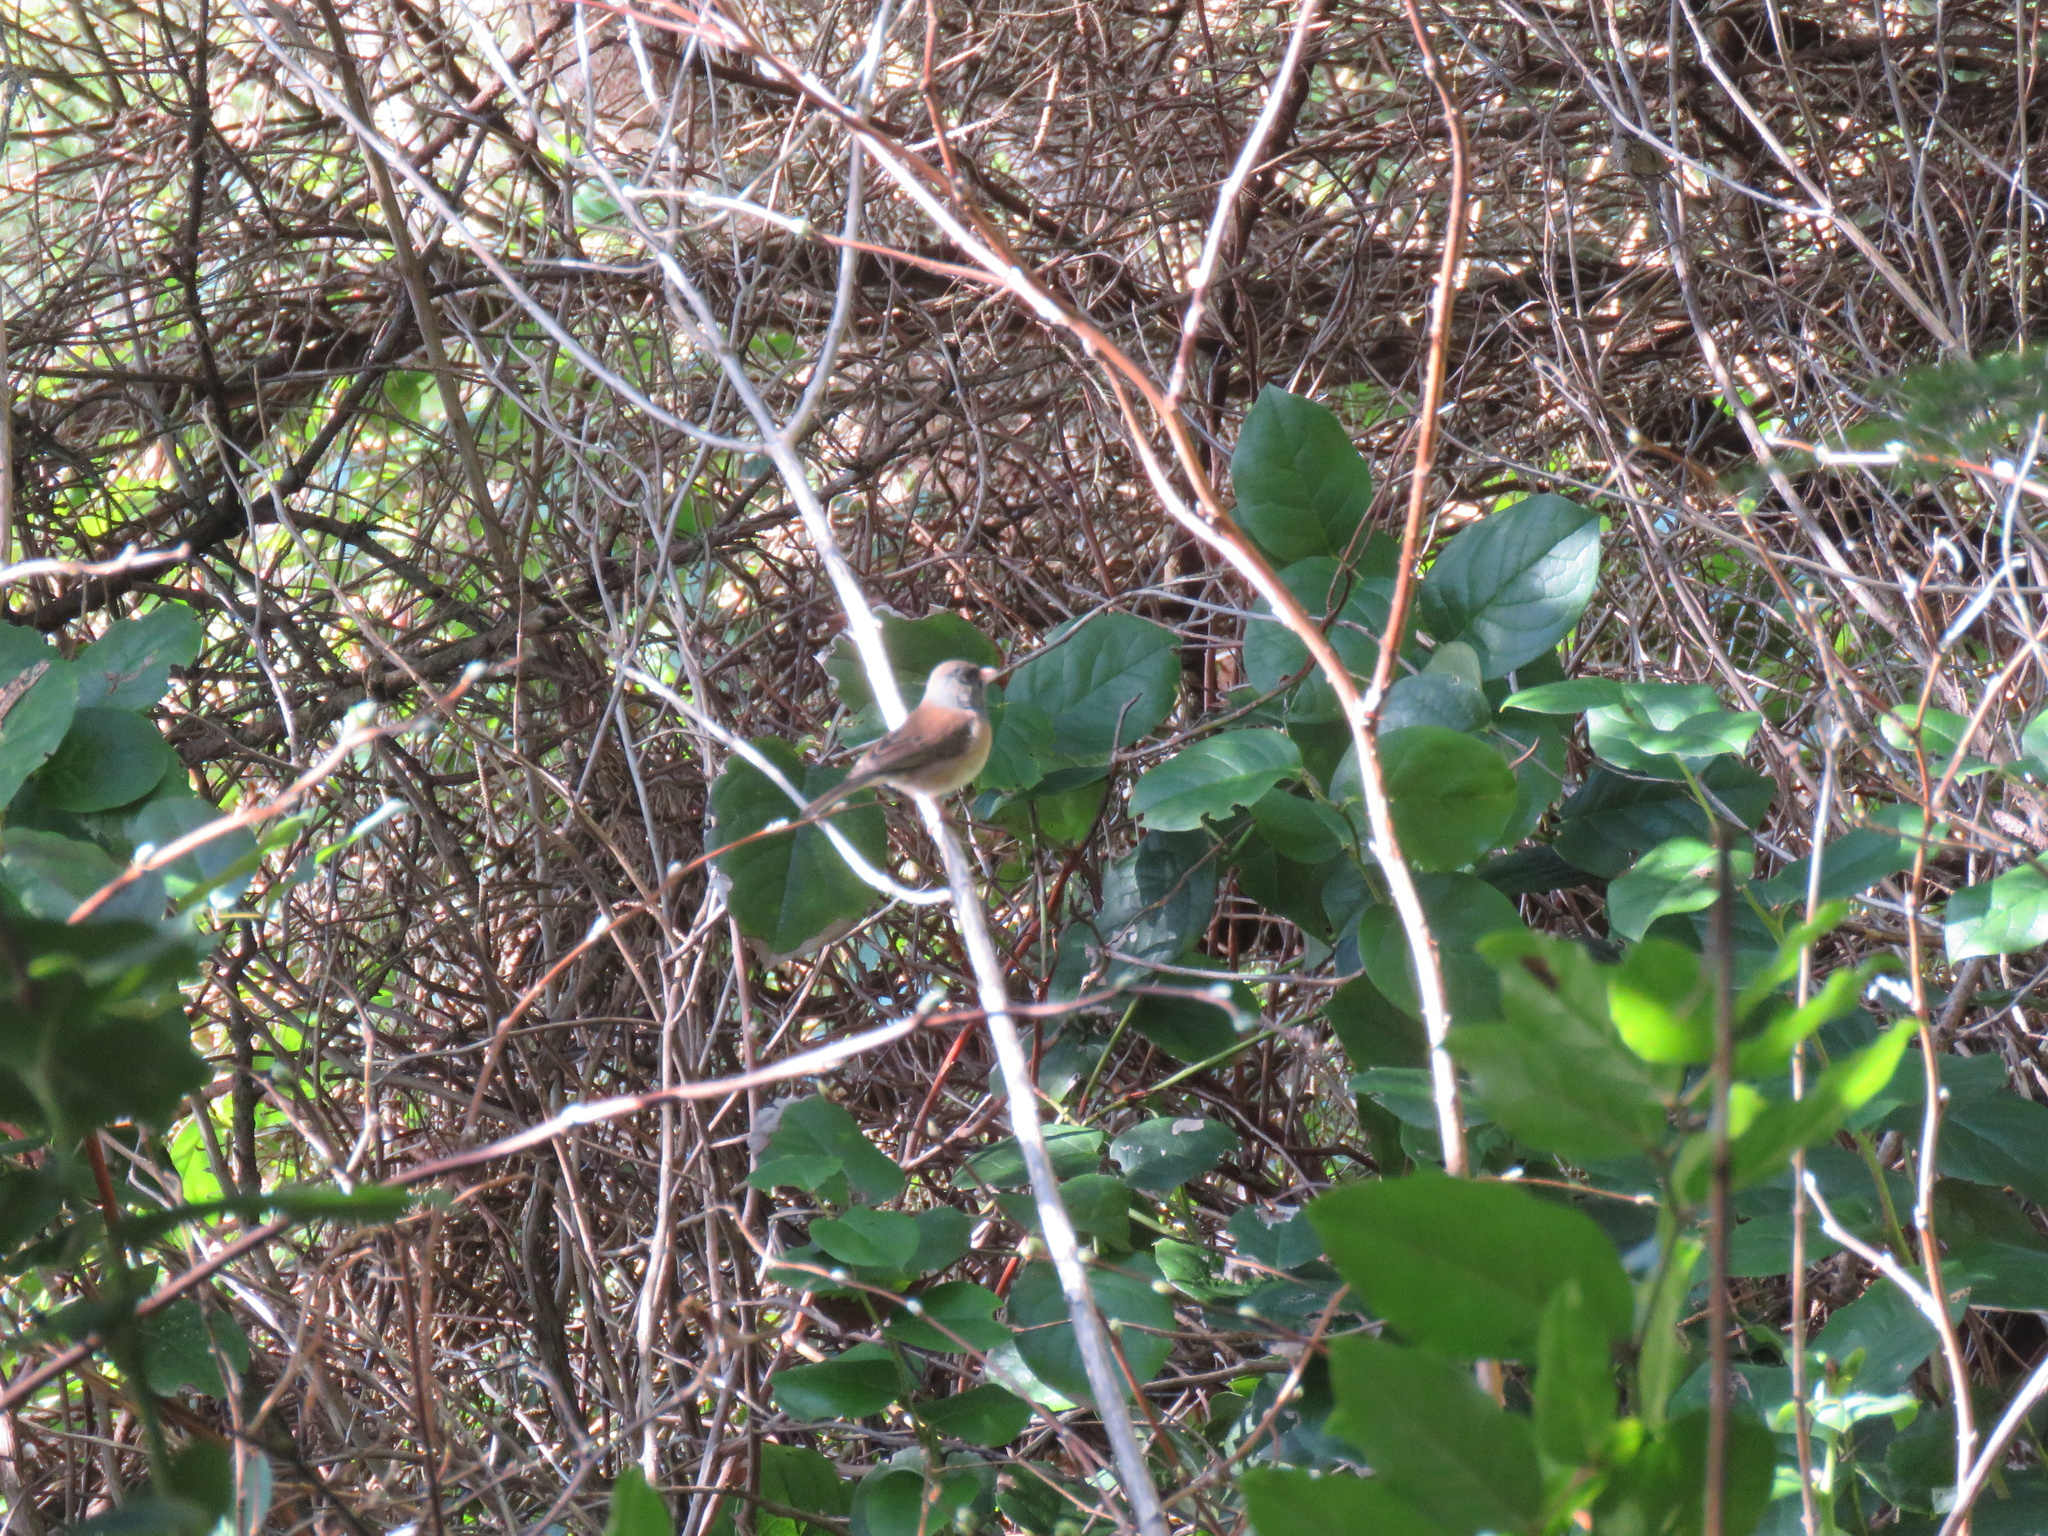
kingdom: Animalia
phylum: Chordata
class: Aves
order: Passeriformes
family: Passerellidae
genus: Junco
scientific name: Junco hyemalis
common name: Dark-eyed junco
